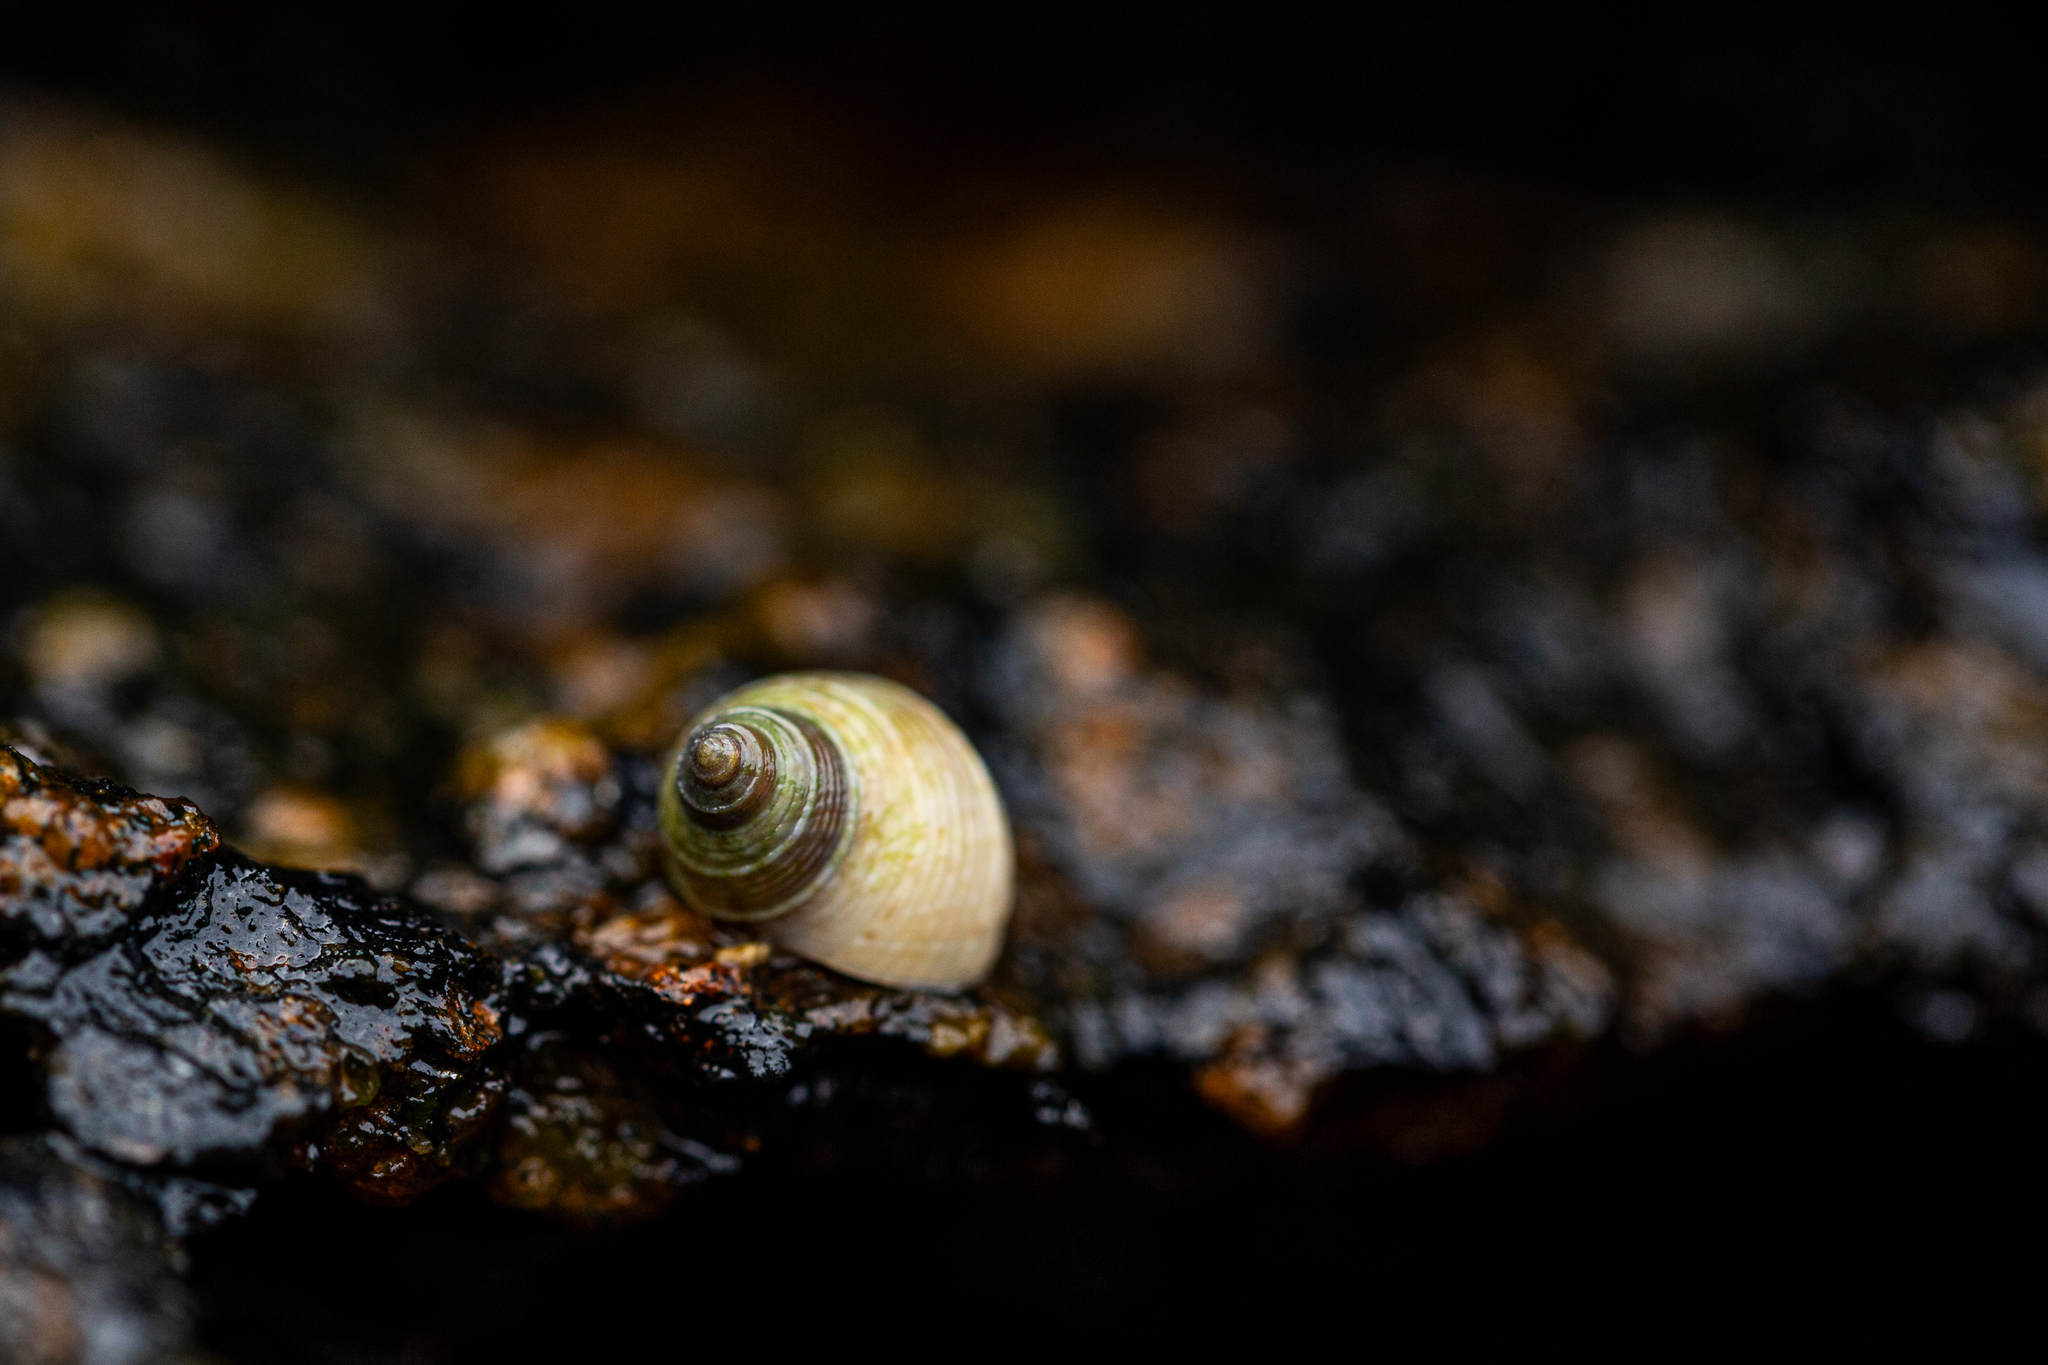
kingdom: Animalia
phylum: Mollusca
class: Gastropoda
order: Littorinimorpha
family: Littorinidae
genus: Littoraria
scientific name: Littoraria flava
